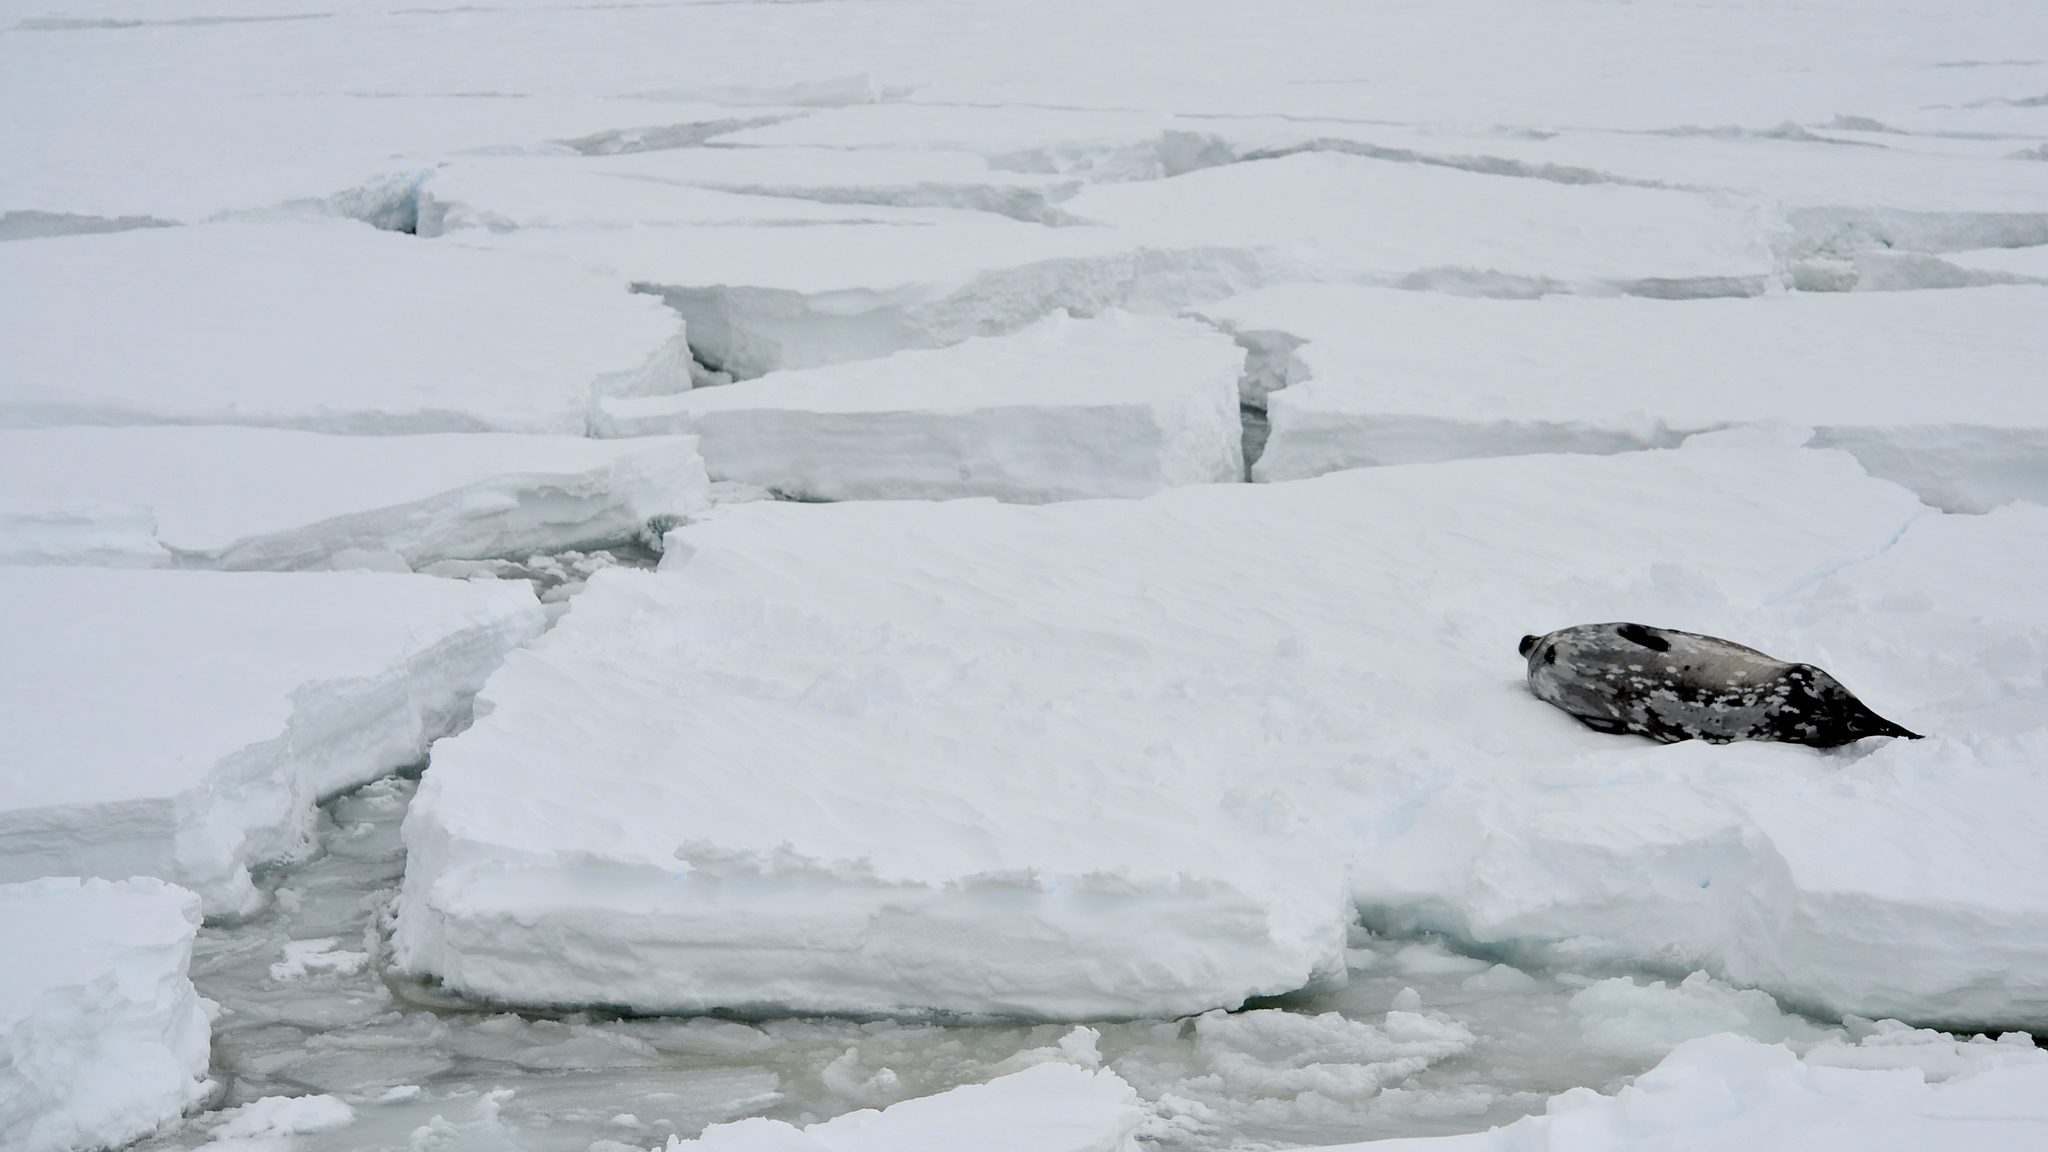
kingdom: Animalia
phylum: Chordata
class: Mammalia
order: Carnivora
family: Phocidae
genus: Leptonychotes
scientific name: Leptonychotes weddellii
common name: Weddell seal
